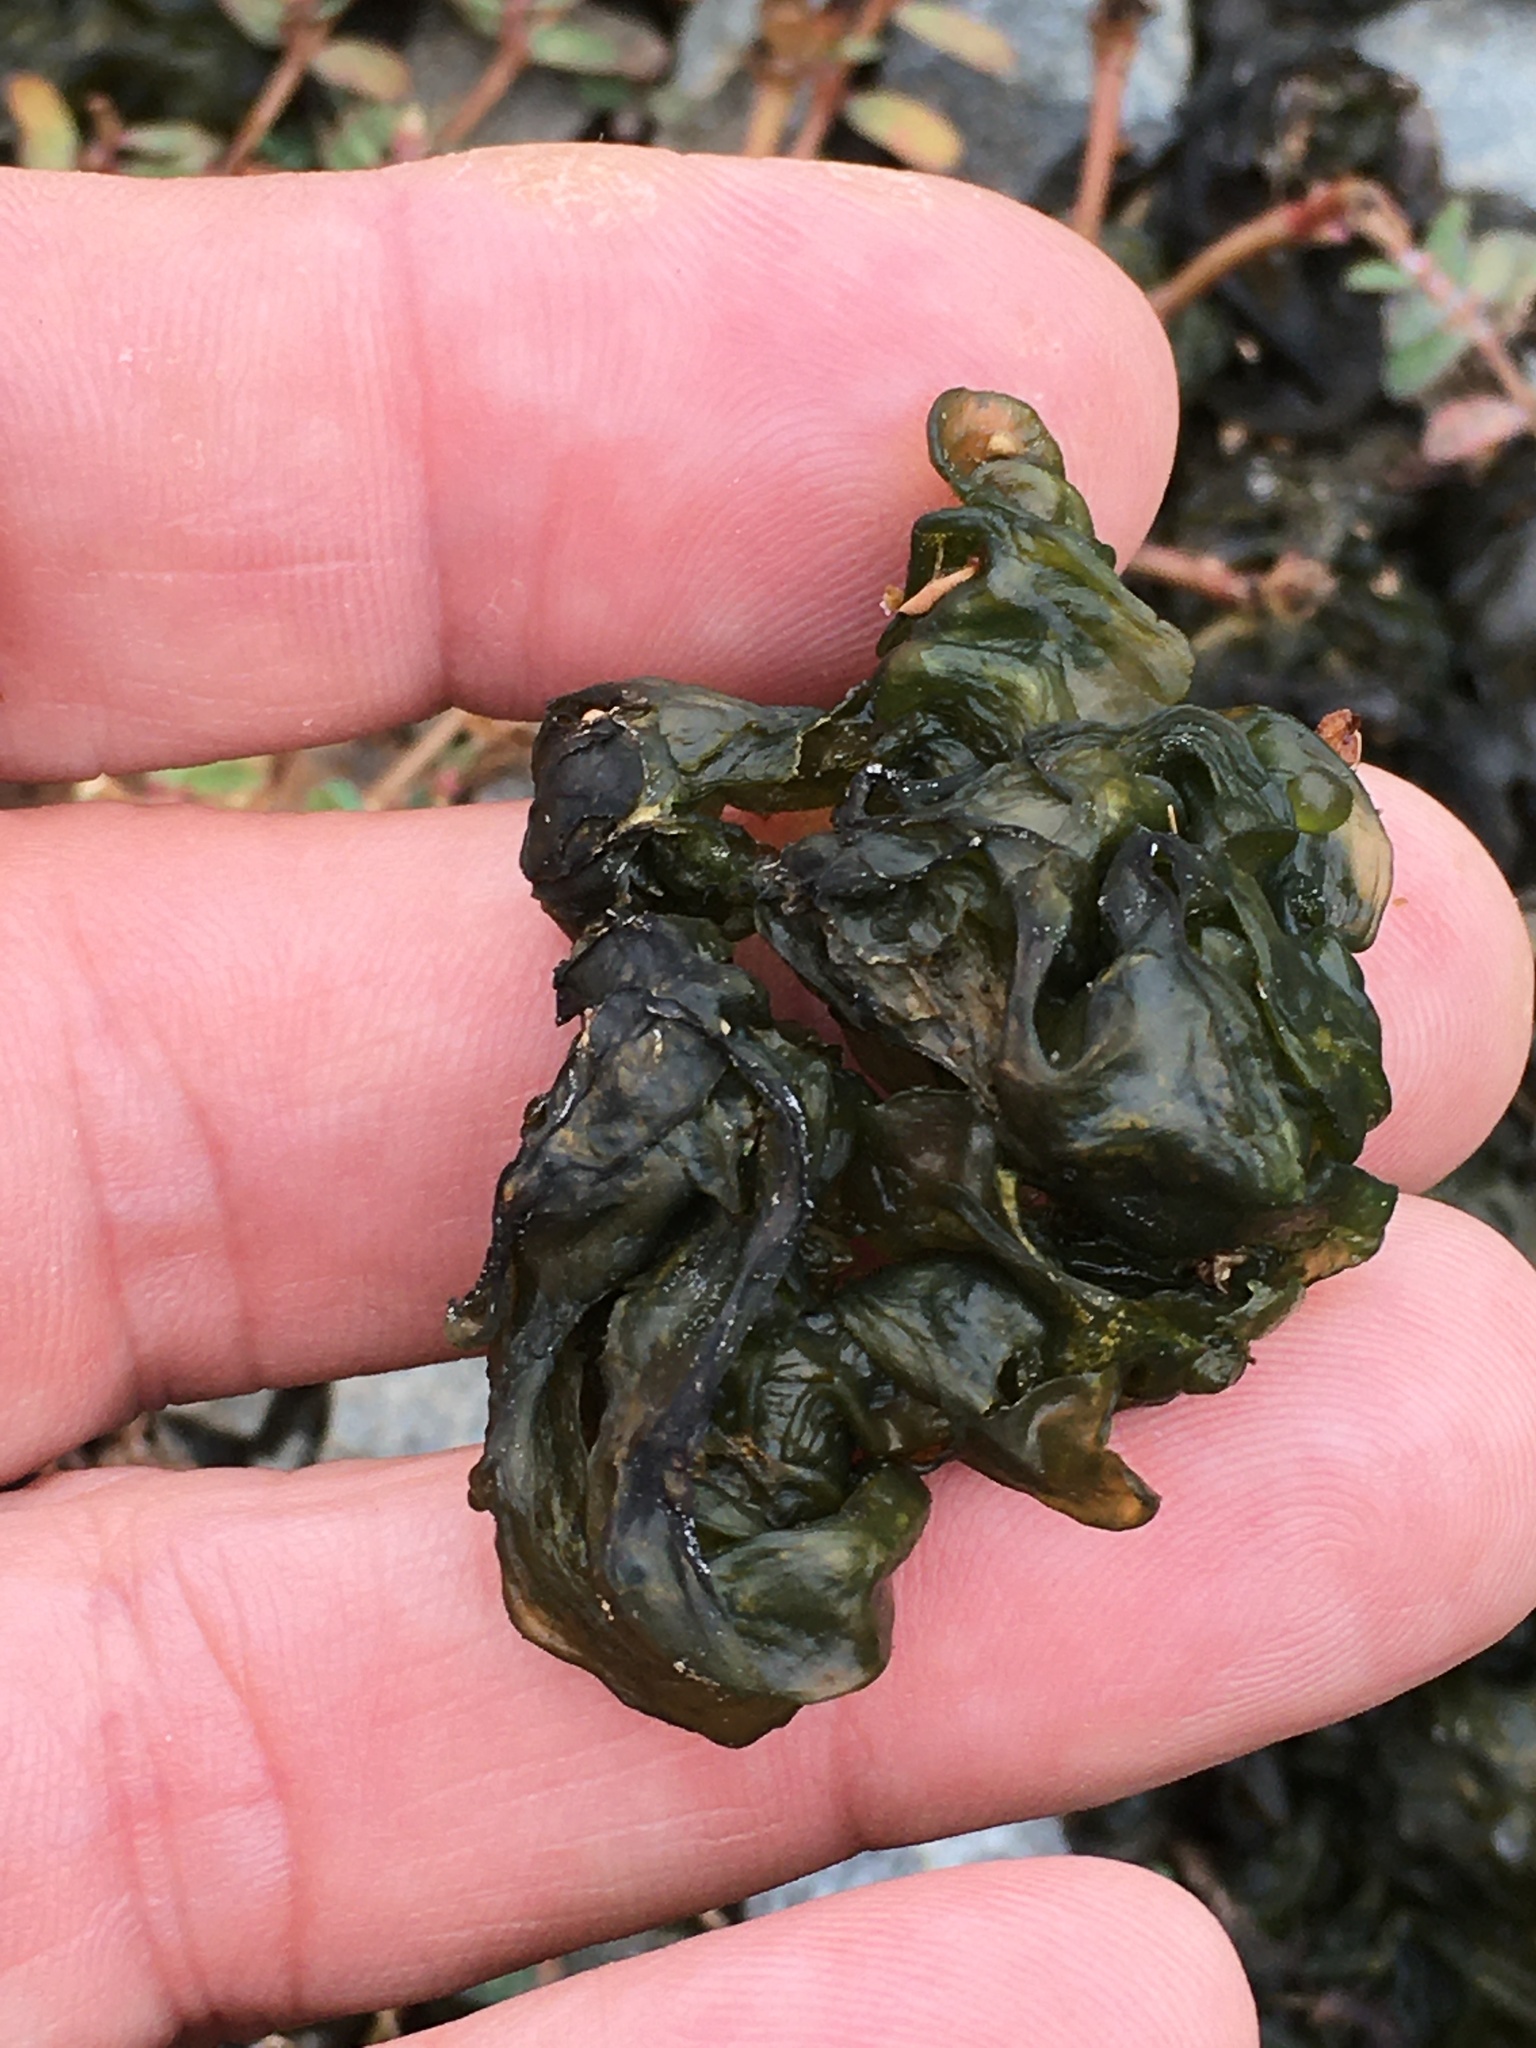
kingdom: Bacteria
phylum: Cyanobacteria
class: Cyanobacteriia
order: Cyanobacteriales
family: Nostocaceae
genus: Nostoc
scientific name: Nostoc commune
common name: Star jelly
